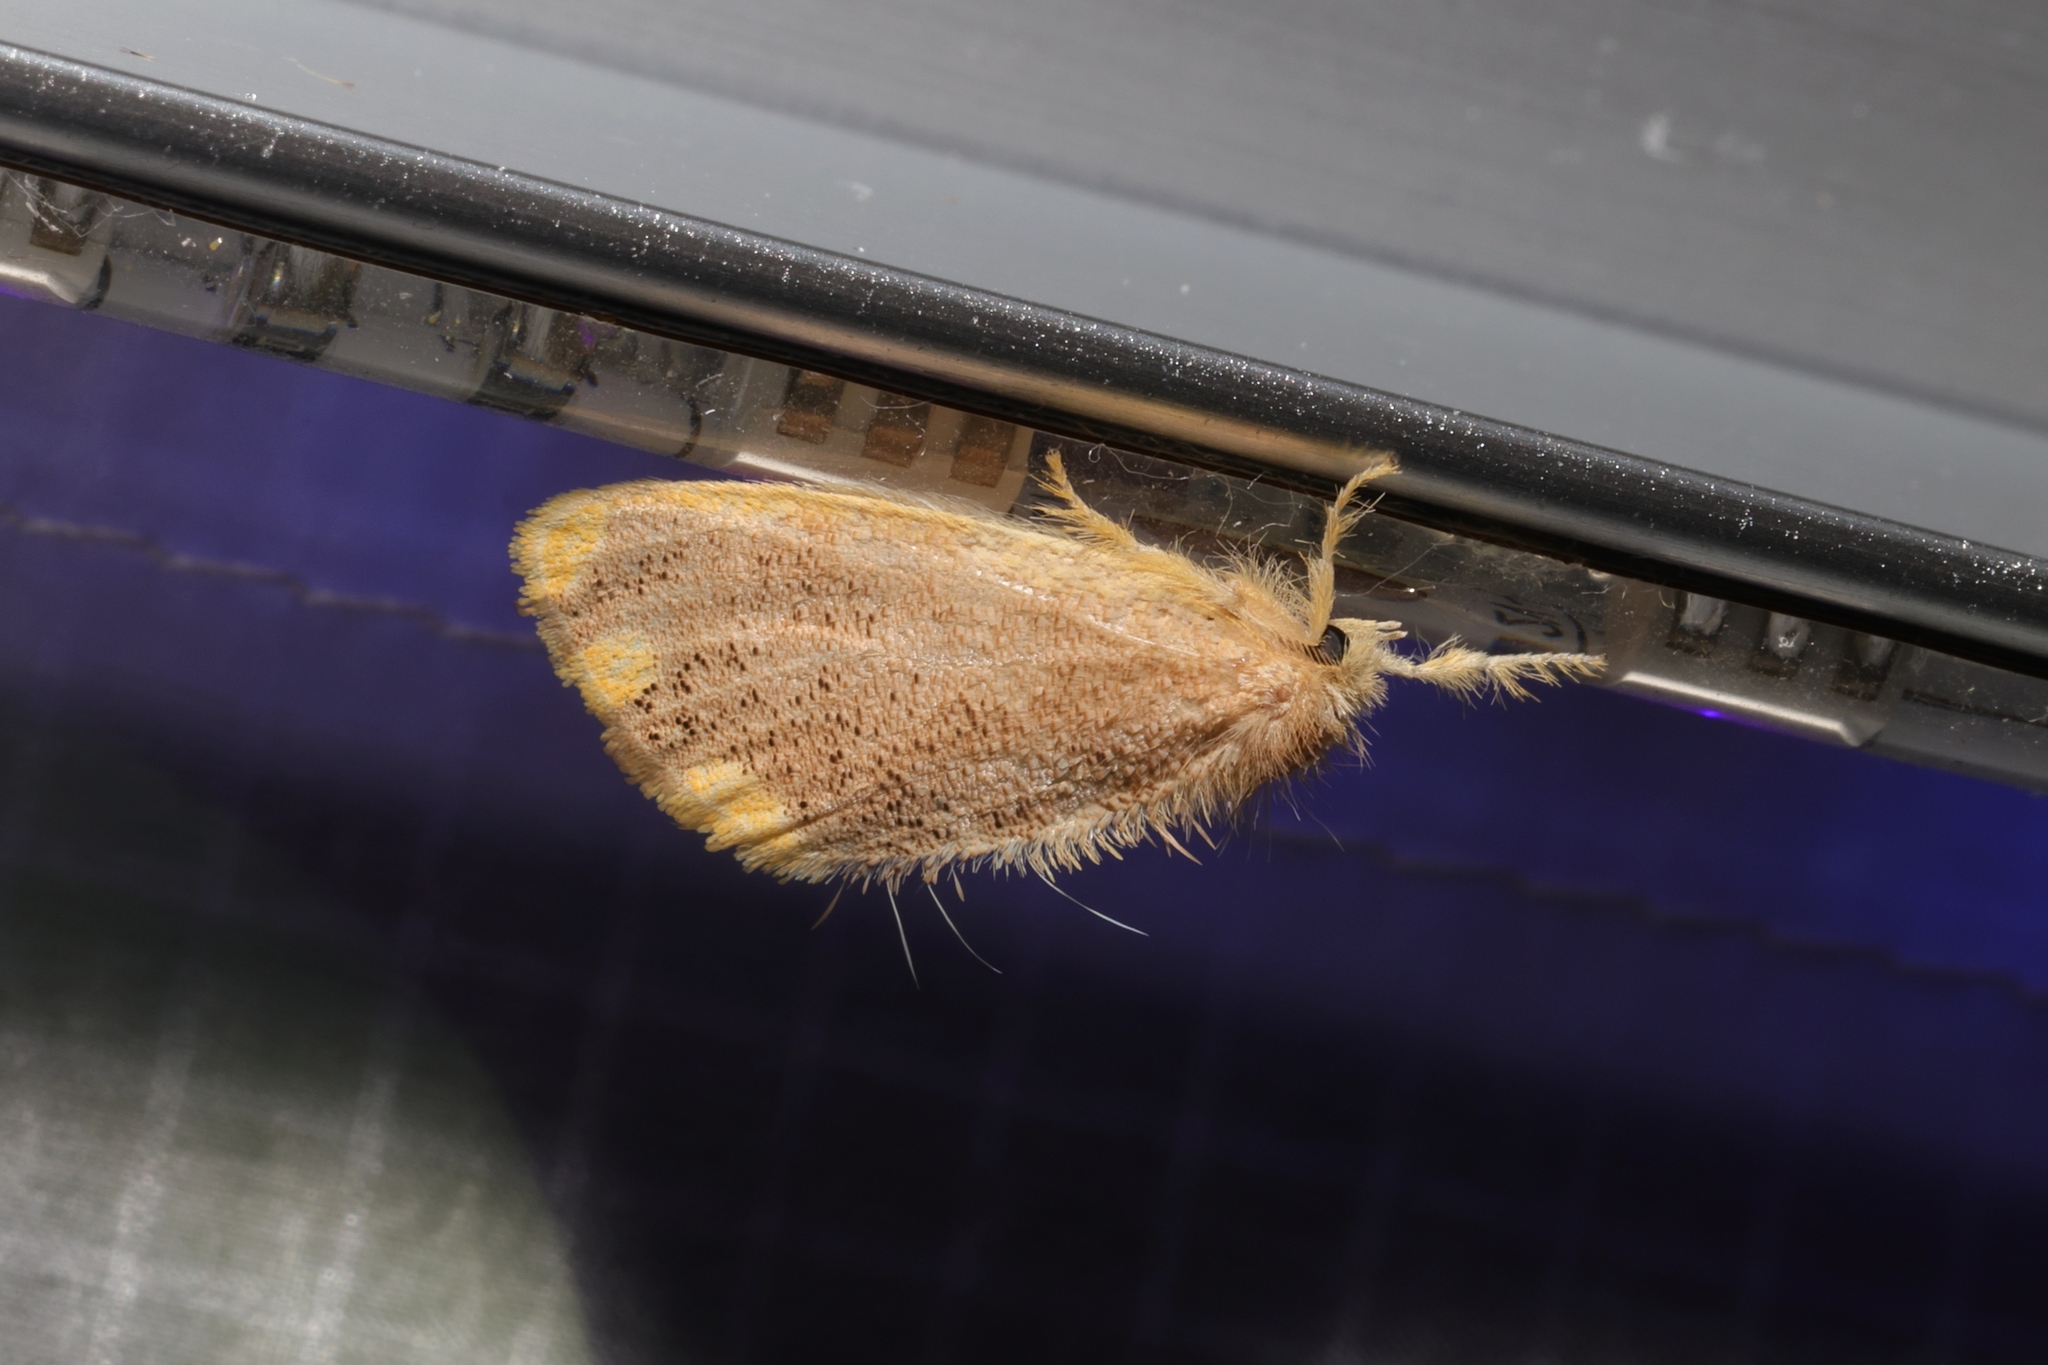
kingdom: Animalia
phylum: Arthropoda
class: Insecta
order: Lepidoptera
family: Erebidae
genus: Orvasca
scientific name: Orvasca subnotata
